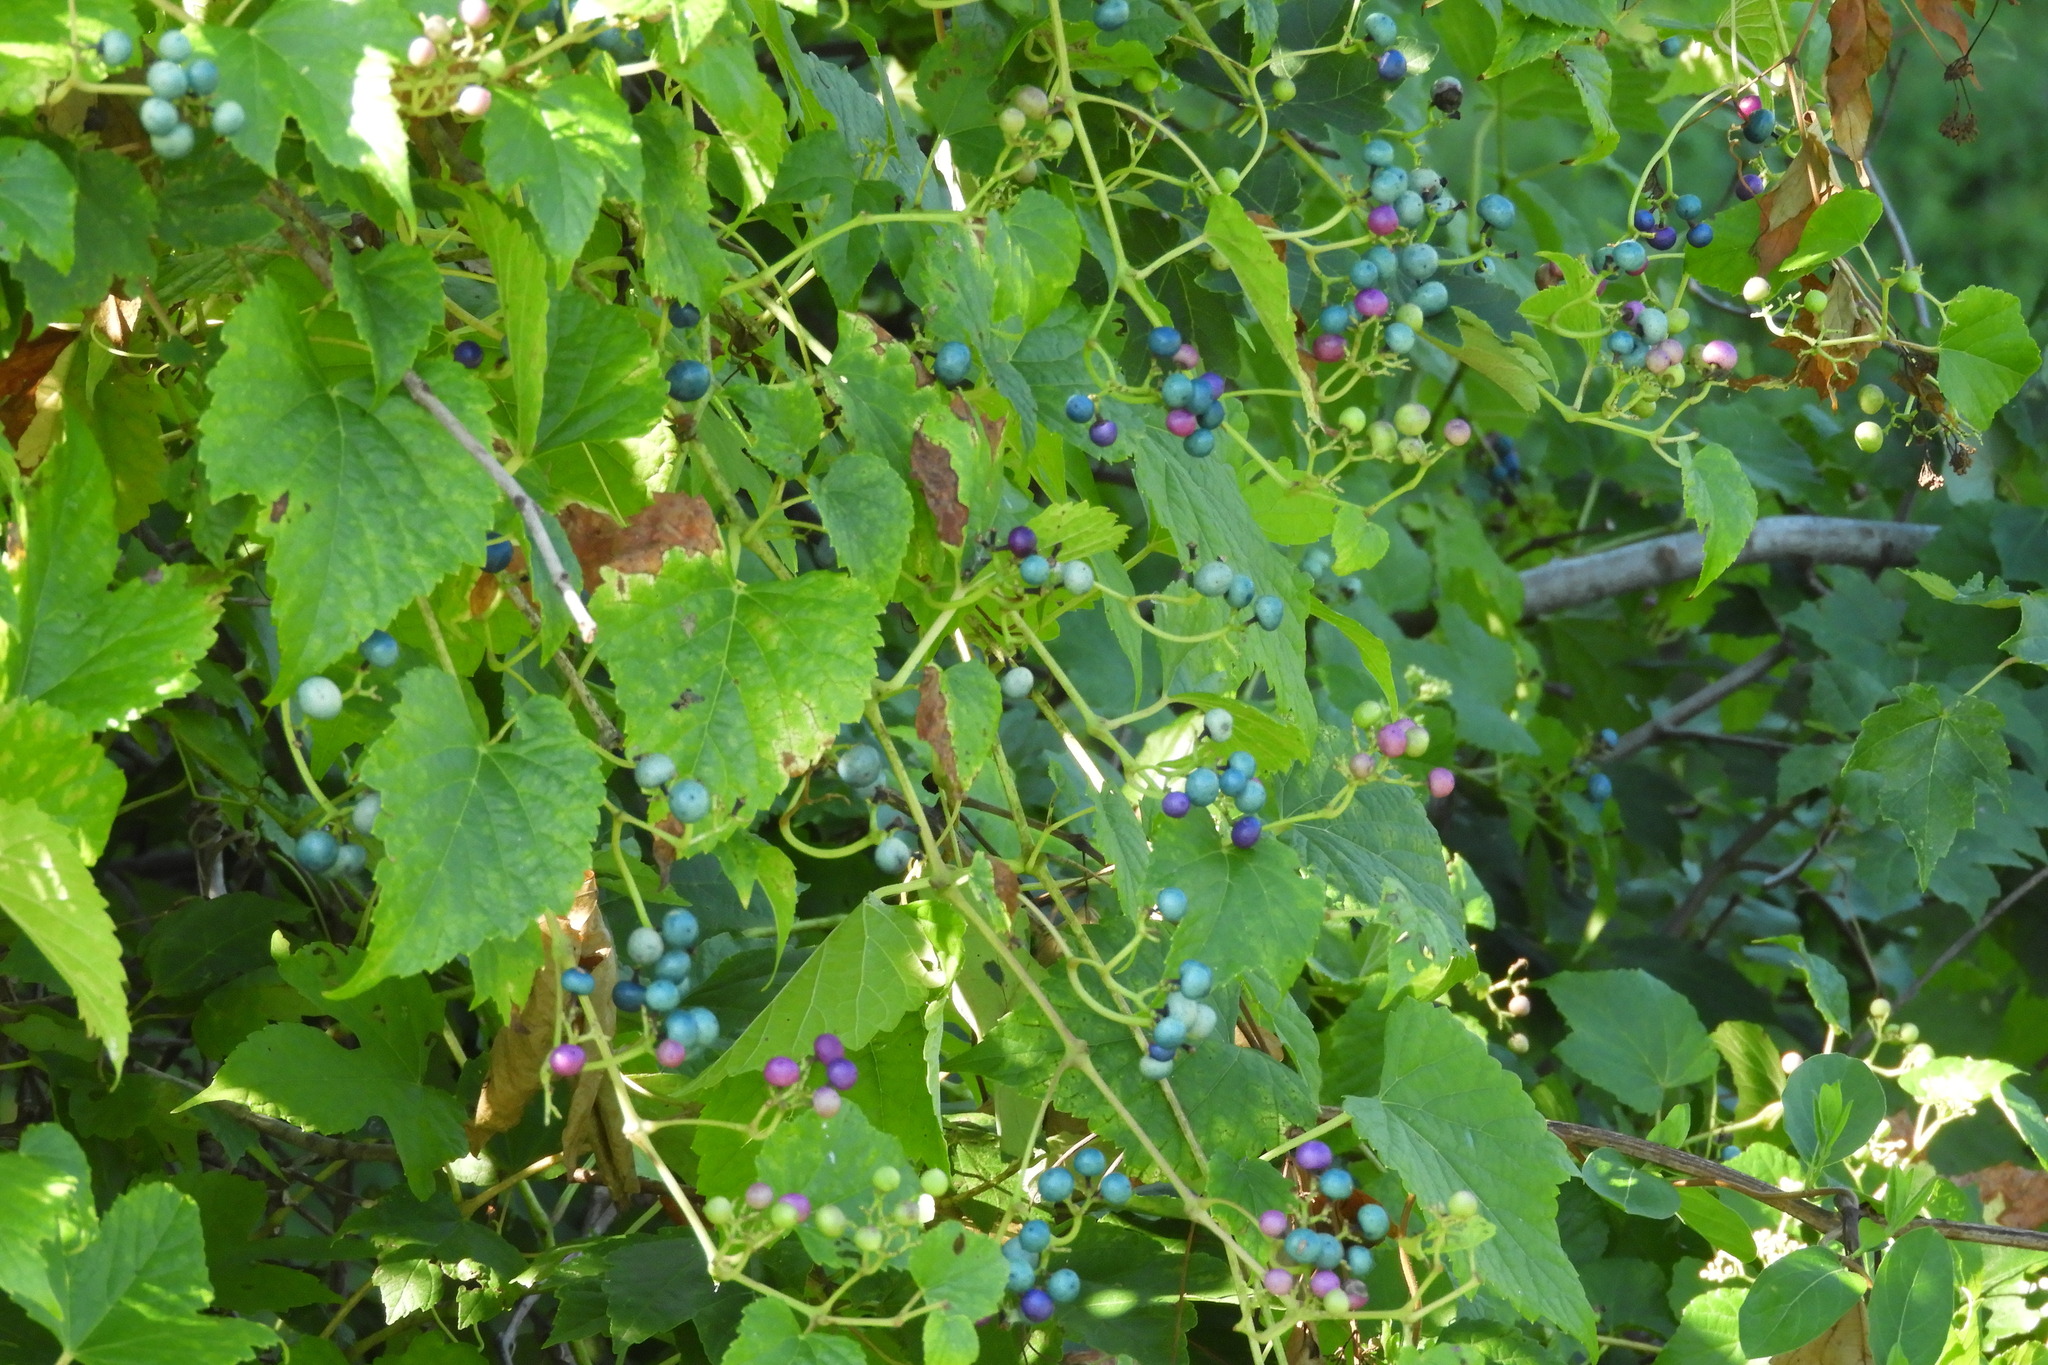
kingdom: Plantae
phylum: Tracheophyta
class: Magnoliopsida
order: Vitales
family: Vitaceae
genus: Ampelopsis
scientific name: Ampelopsis glandulosa
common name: Amur peppervine
